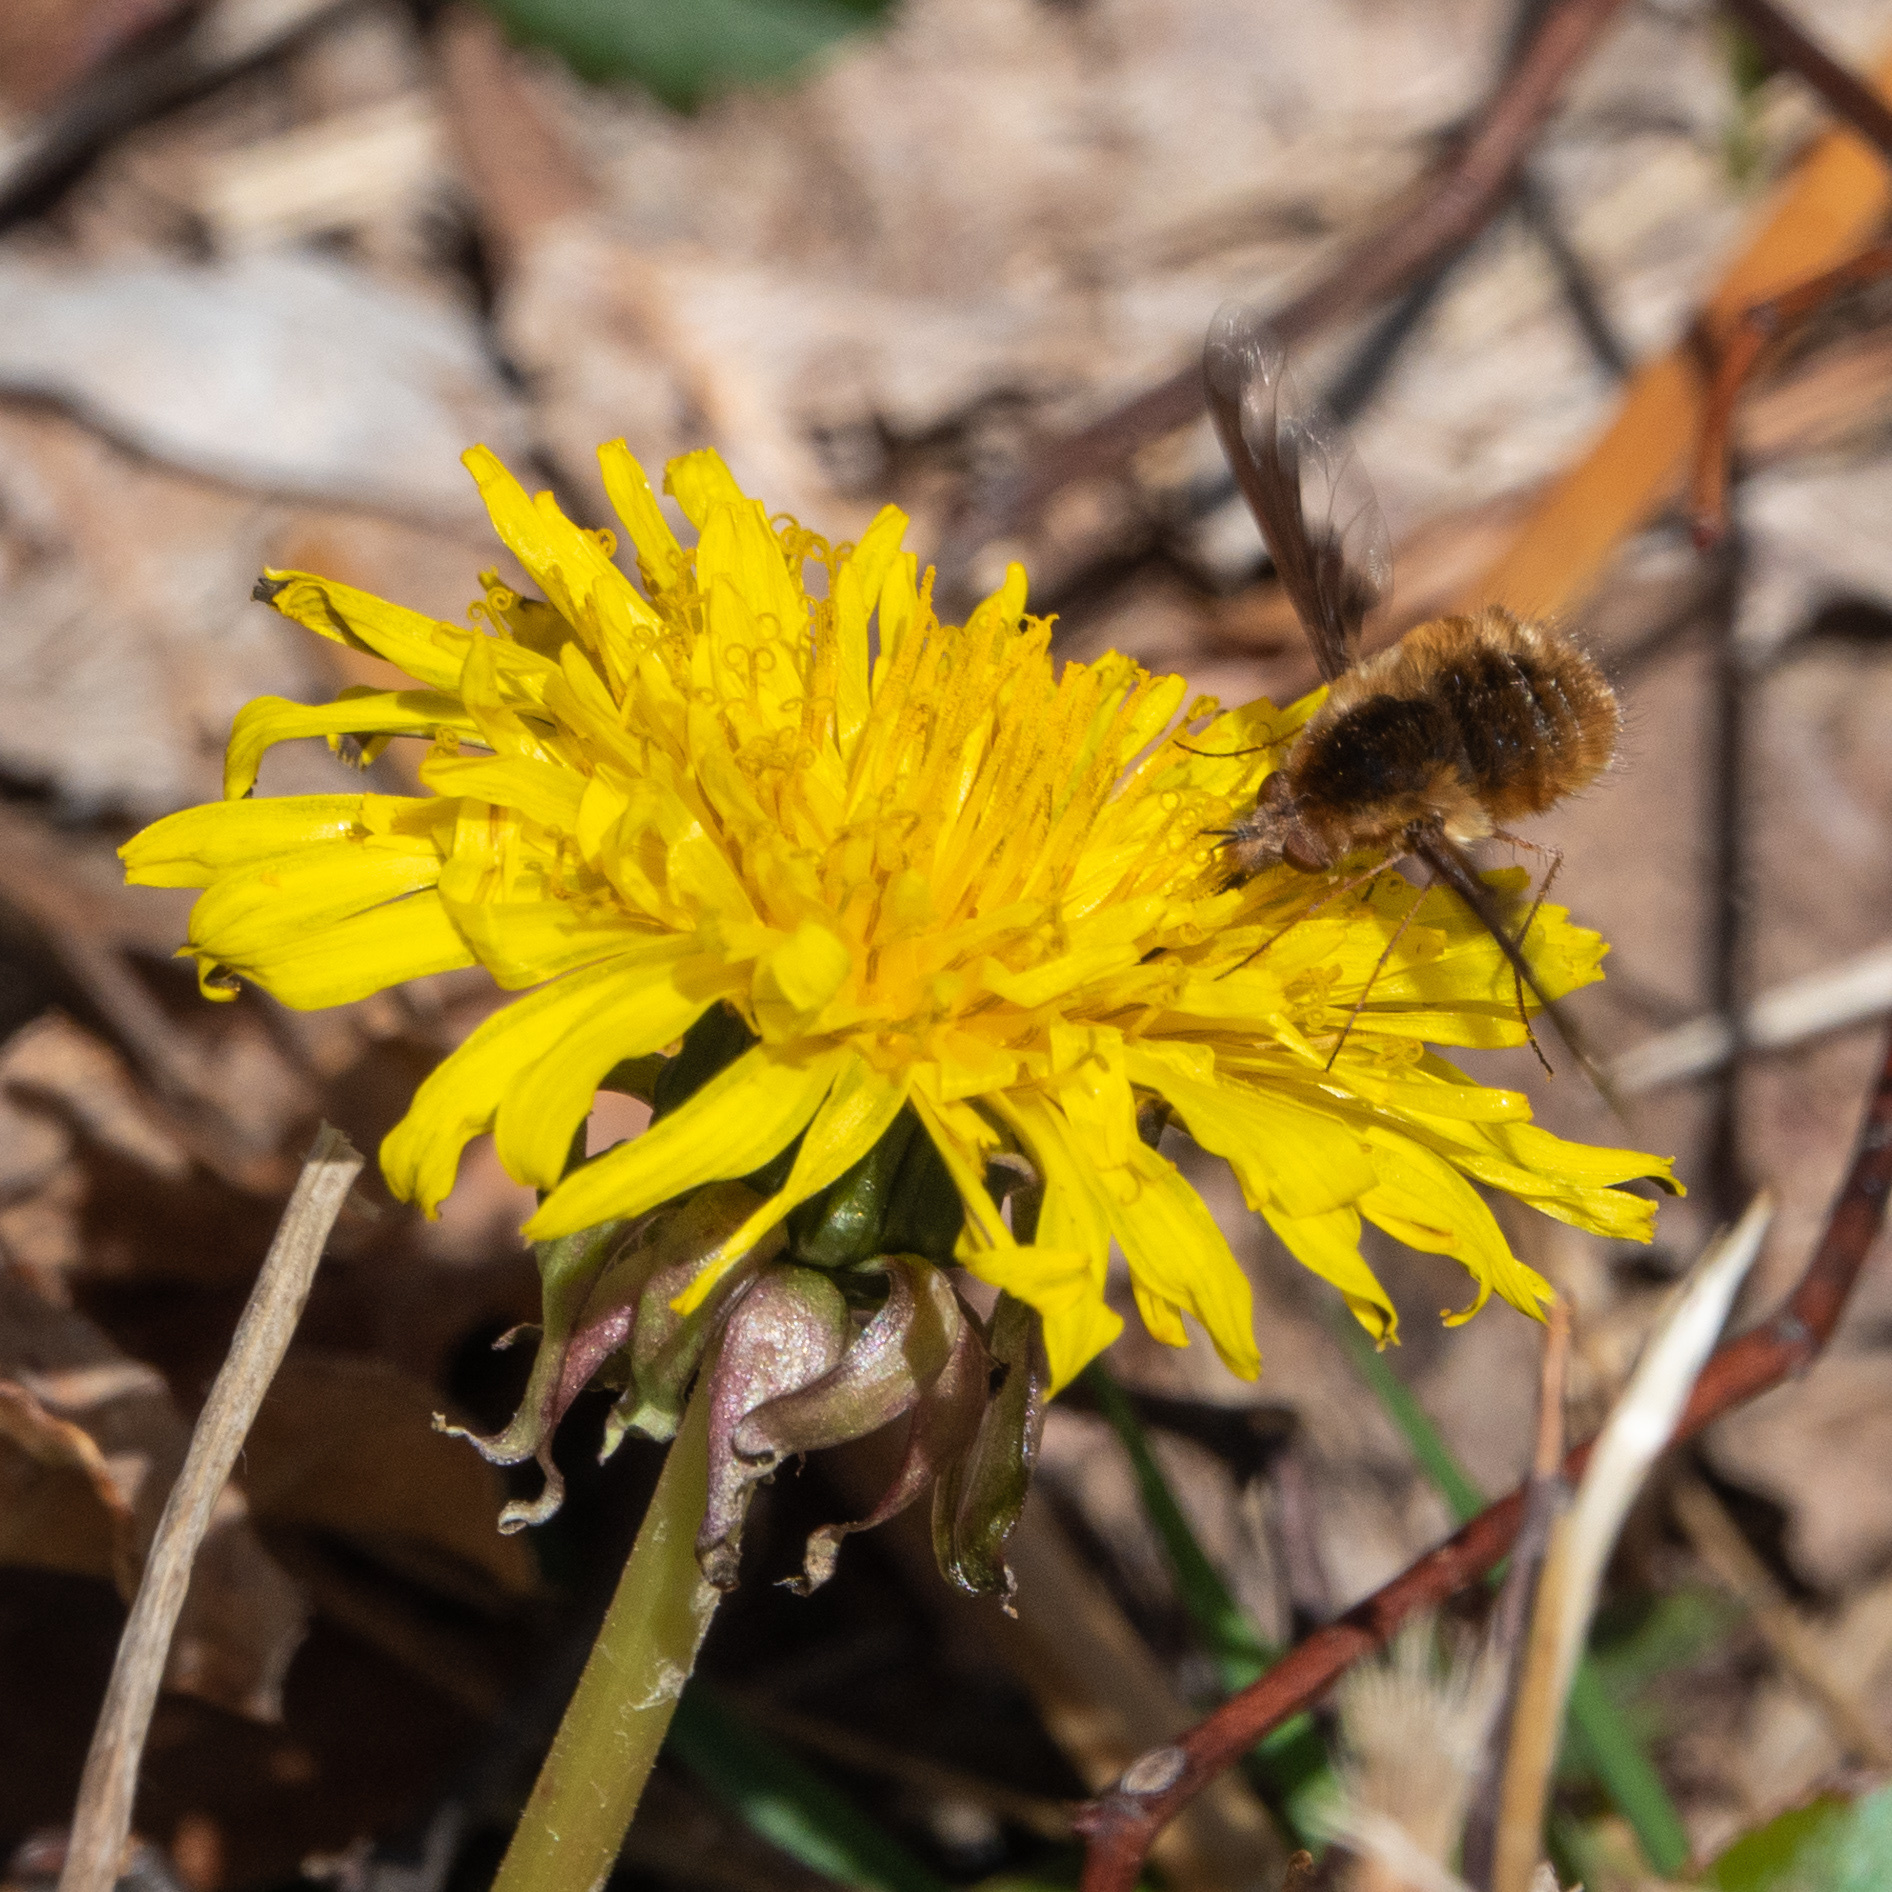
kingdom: Animalia
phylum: Arthropoda
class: Insecta
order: Diptera
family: Bombyliidae
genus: Bombylius
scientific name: Bombylius major
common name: Bee fly
